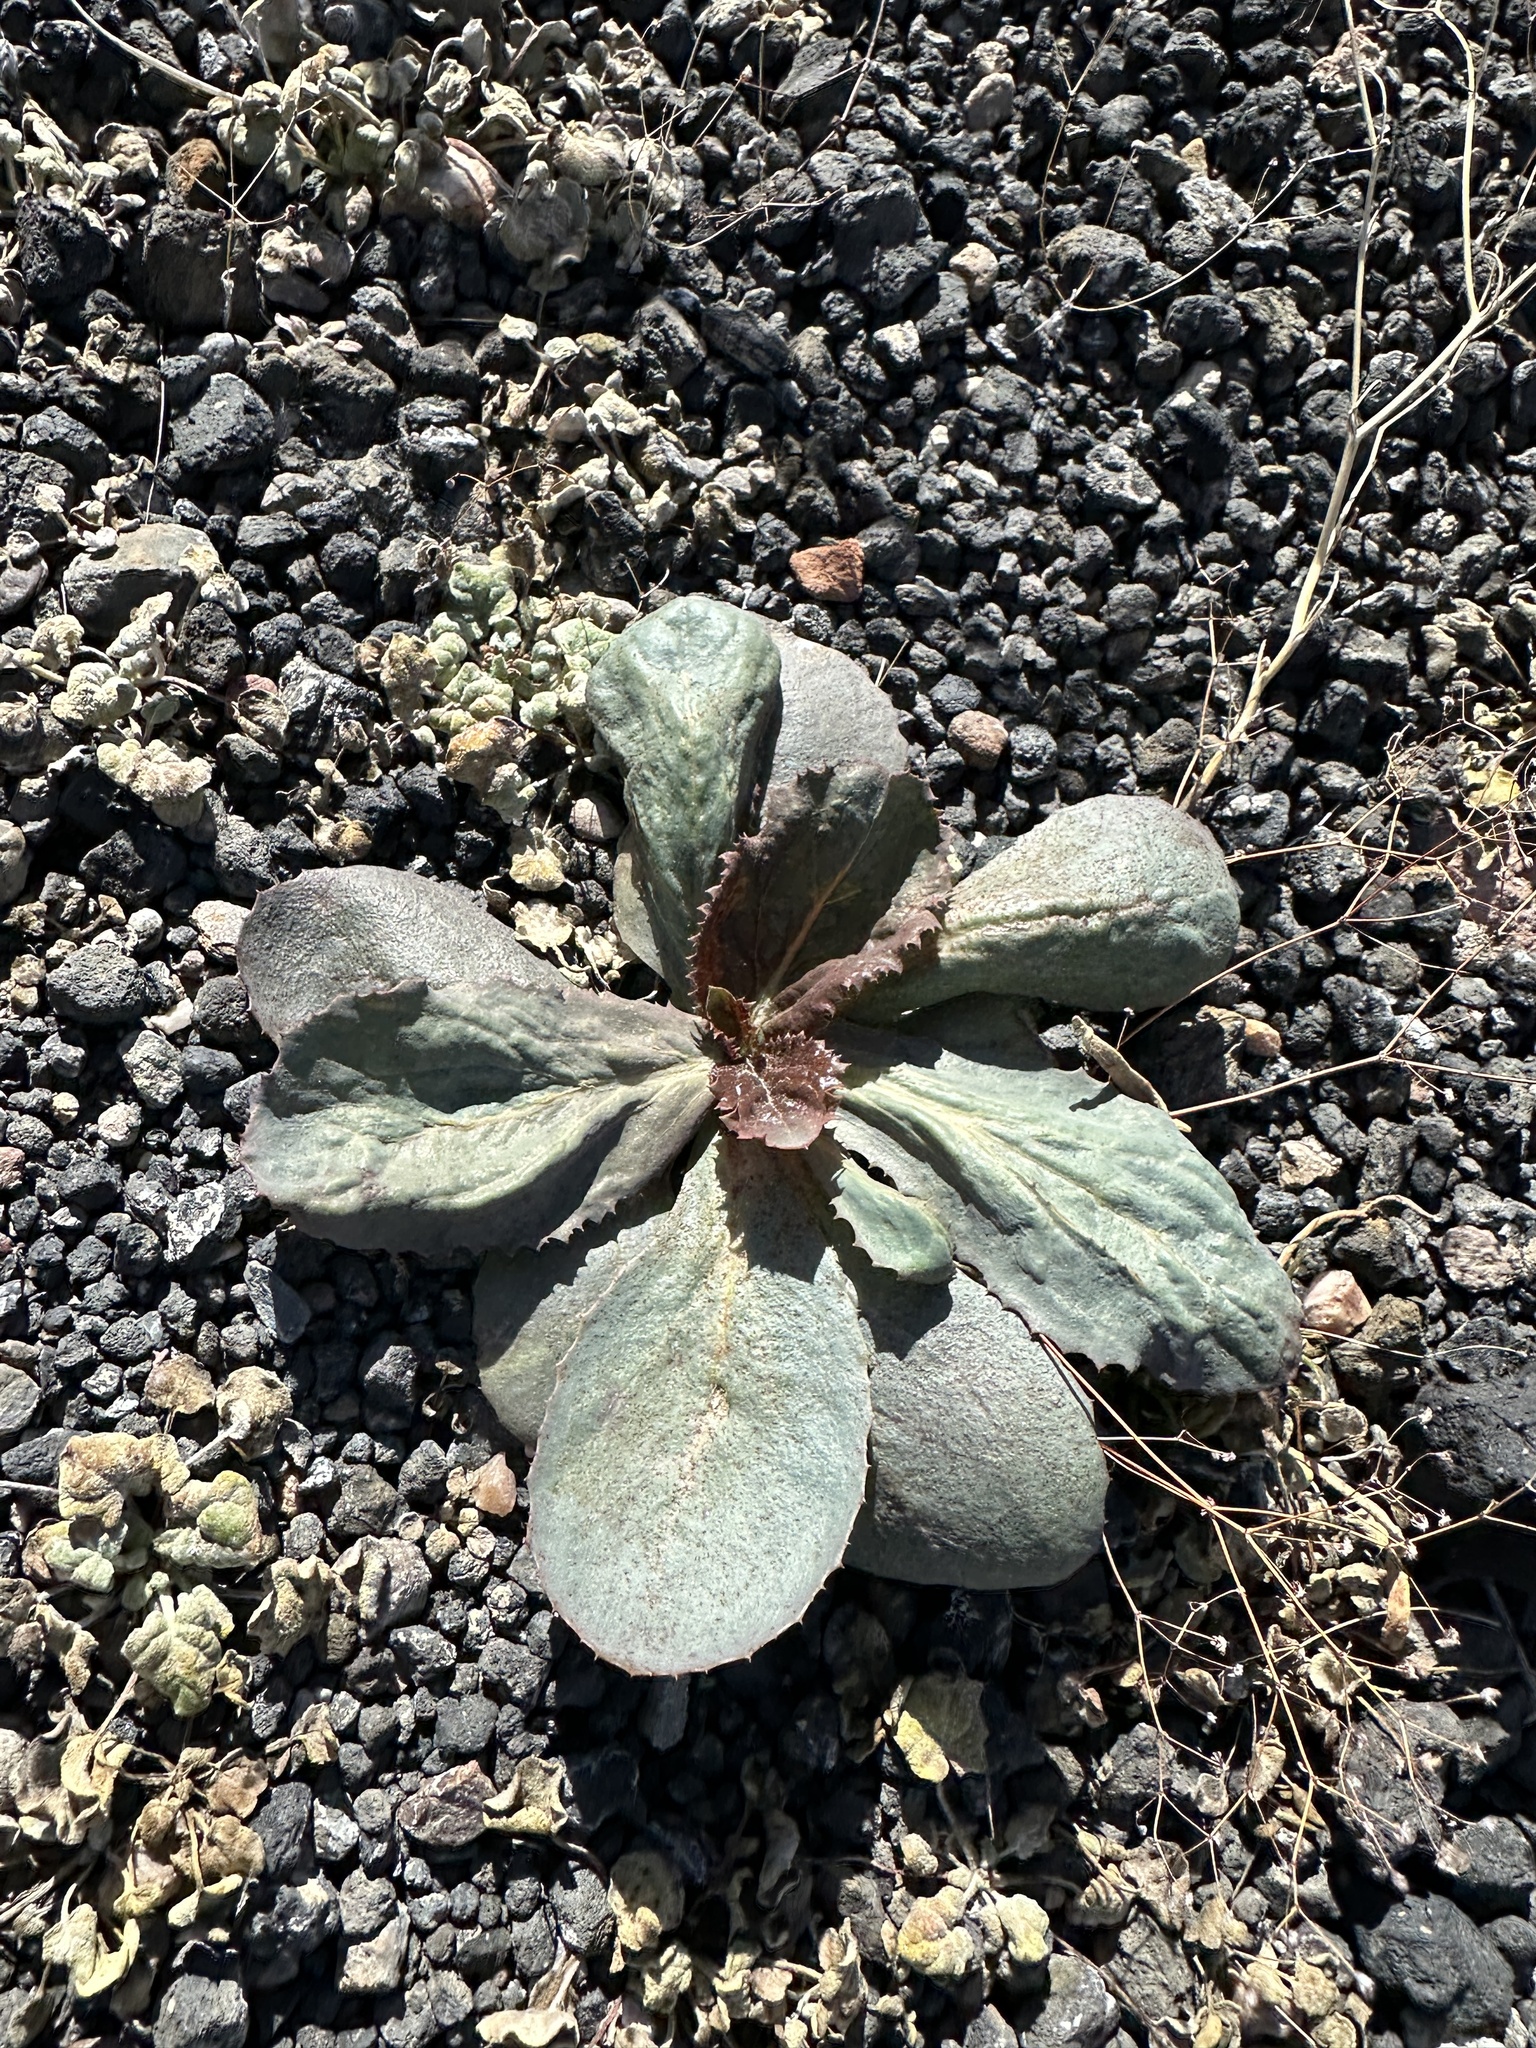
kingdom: Plantae
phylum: Tracheophyta
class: Magnoliopsida
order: Asterales
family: Asteraceae
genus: Atrichoseris
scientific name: Atrichoseris platyphylla
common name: Tobaccoweed
